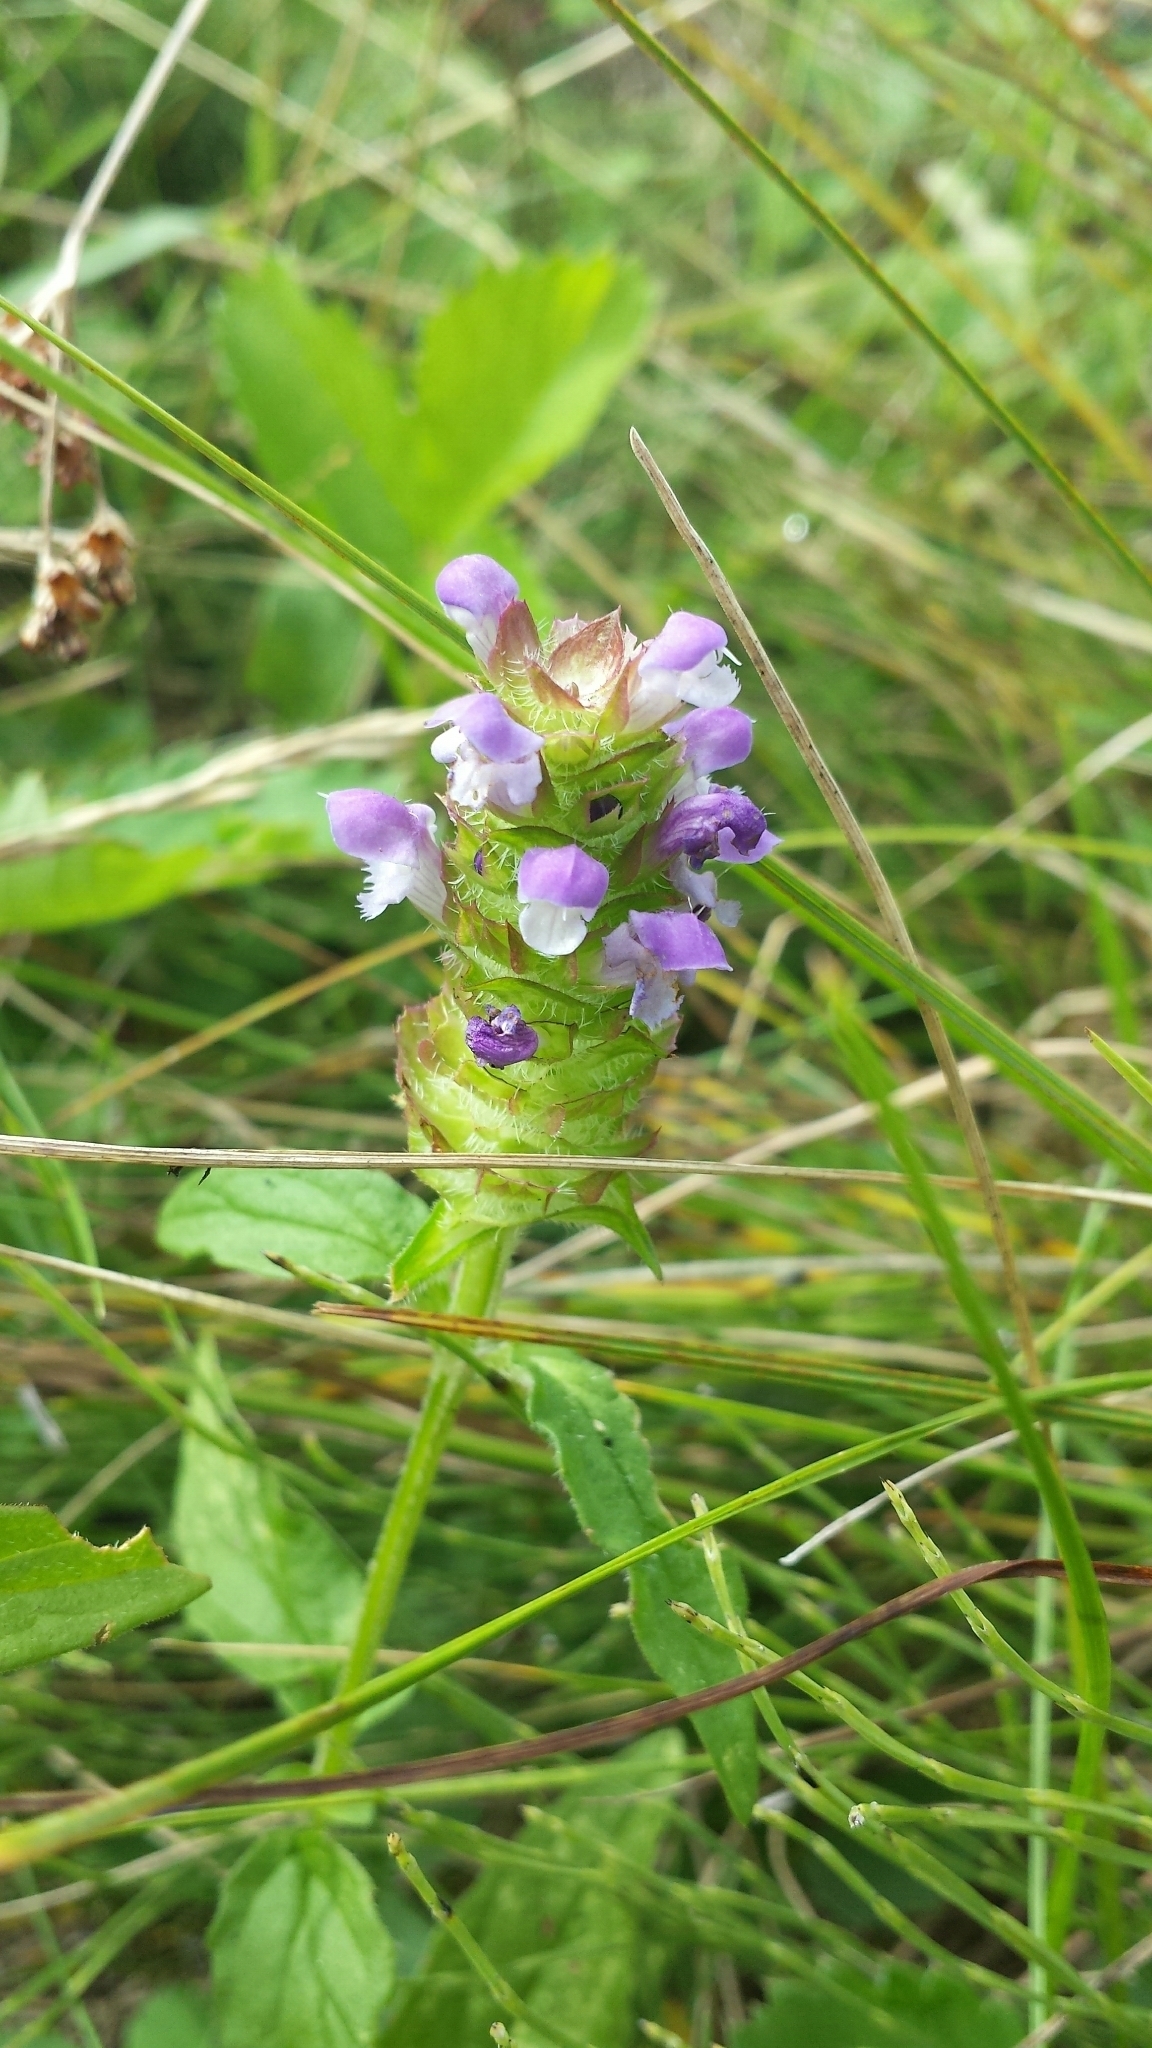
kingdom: Plantae
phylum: Tracheophyta
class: Magnoliopsida
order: Lamiales
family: Lamiaceae
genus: Prunella
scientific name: Prunella vulgaris
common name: Heal-all
